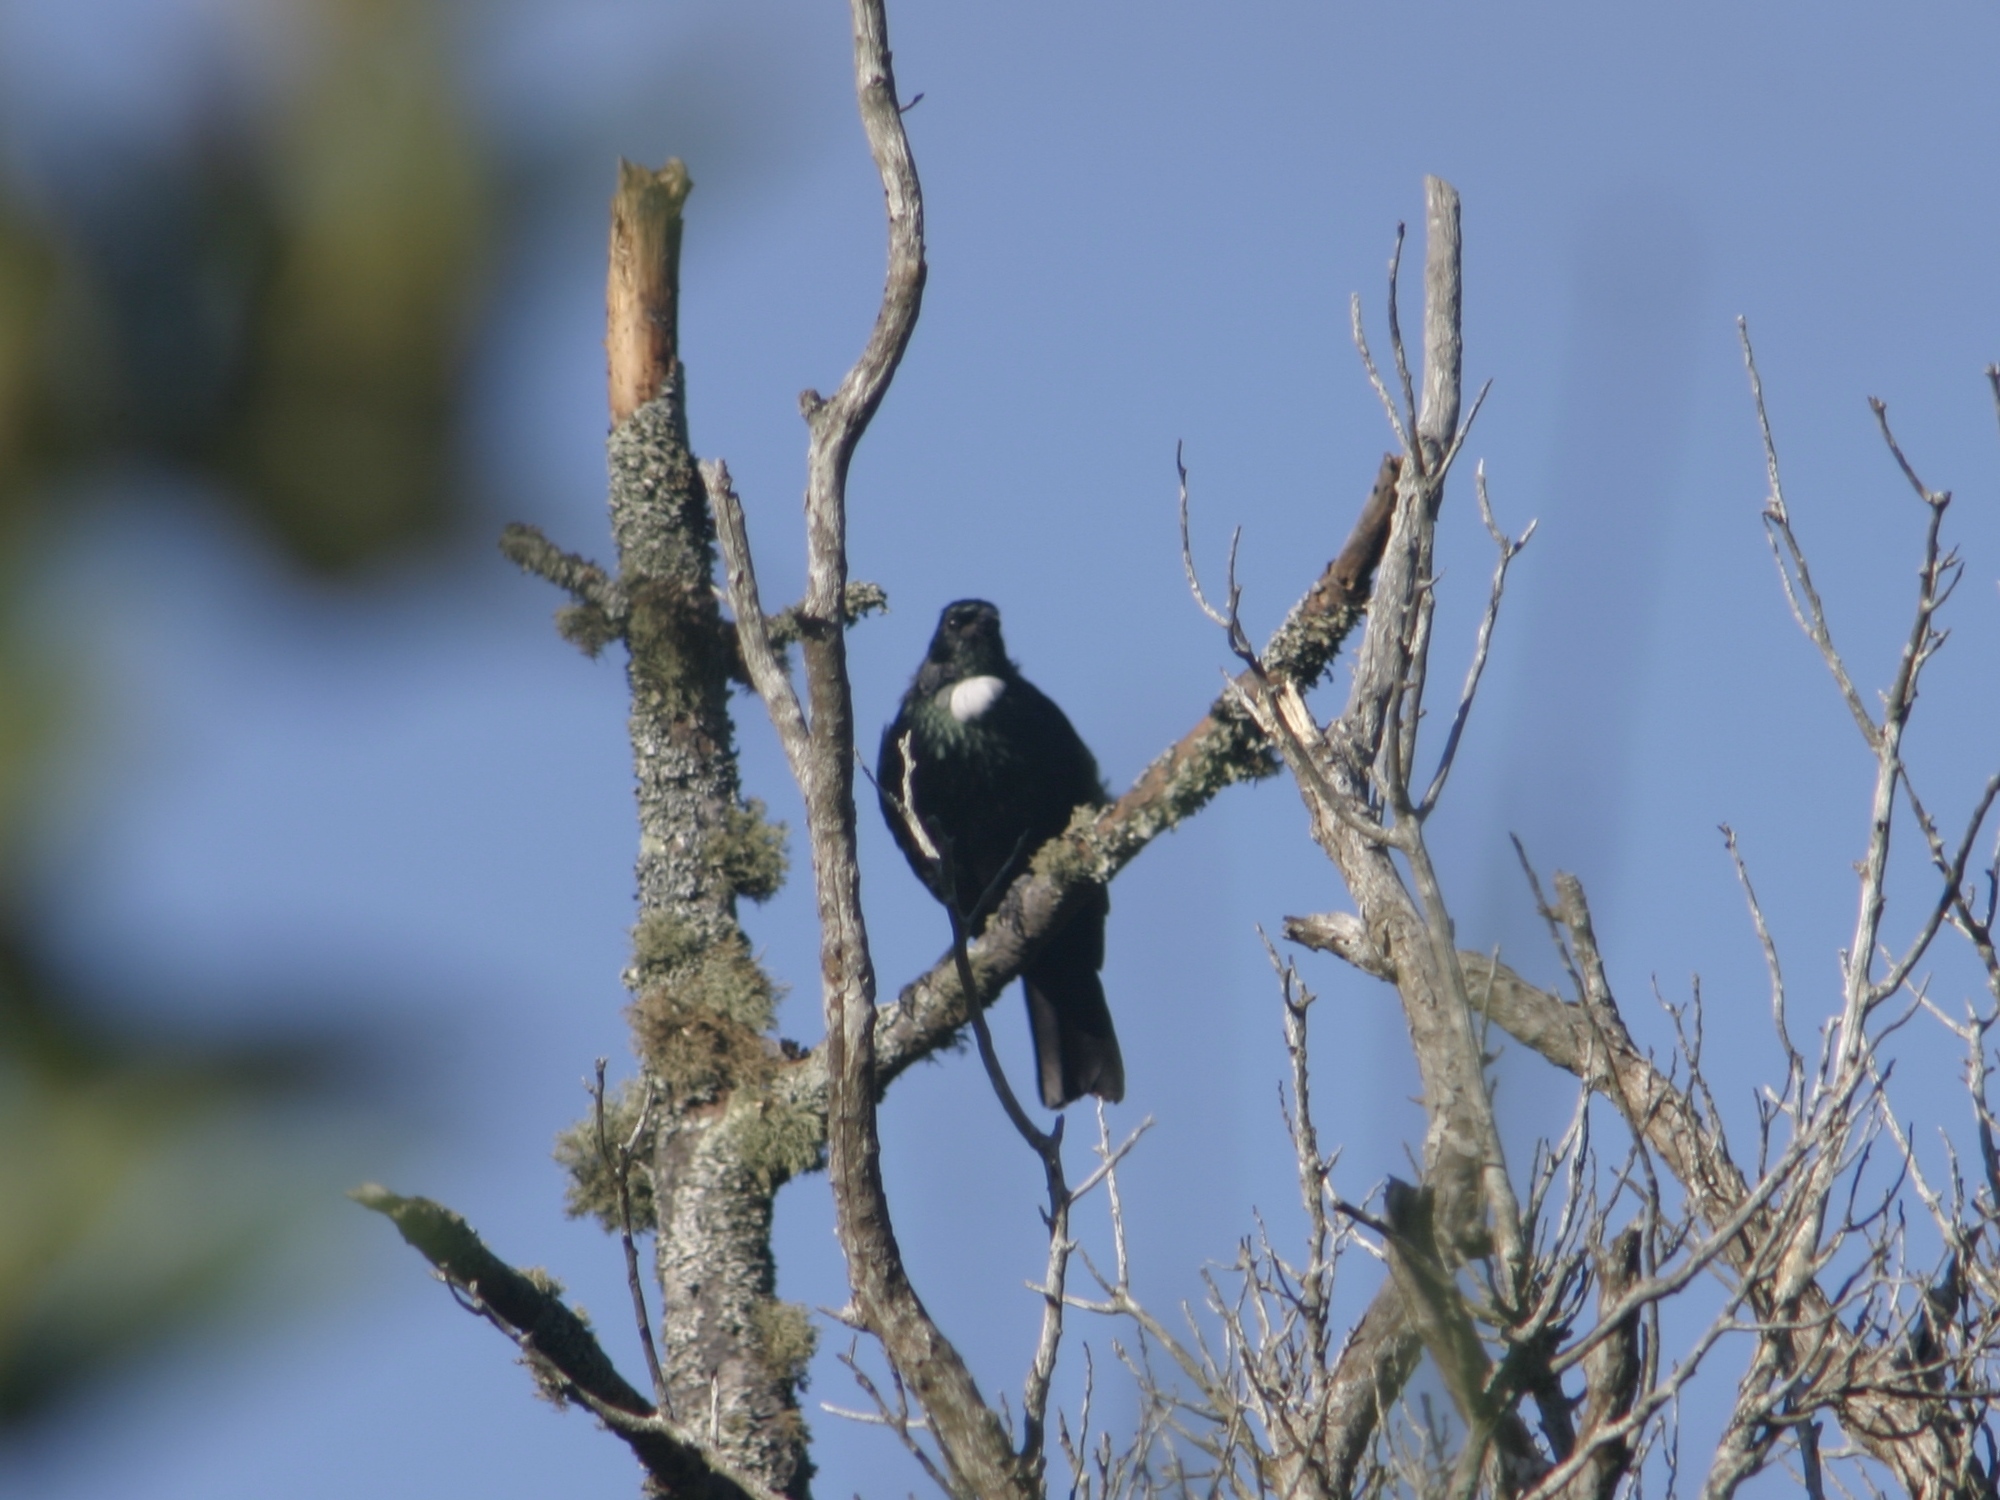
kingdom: Animalia
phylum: Chordata
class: Aves
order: Passeriformes
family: Meliphagidae
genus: Prosthemadera
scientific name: Prosthemadera novaeseelandiae
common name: Tui
